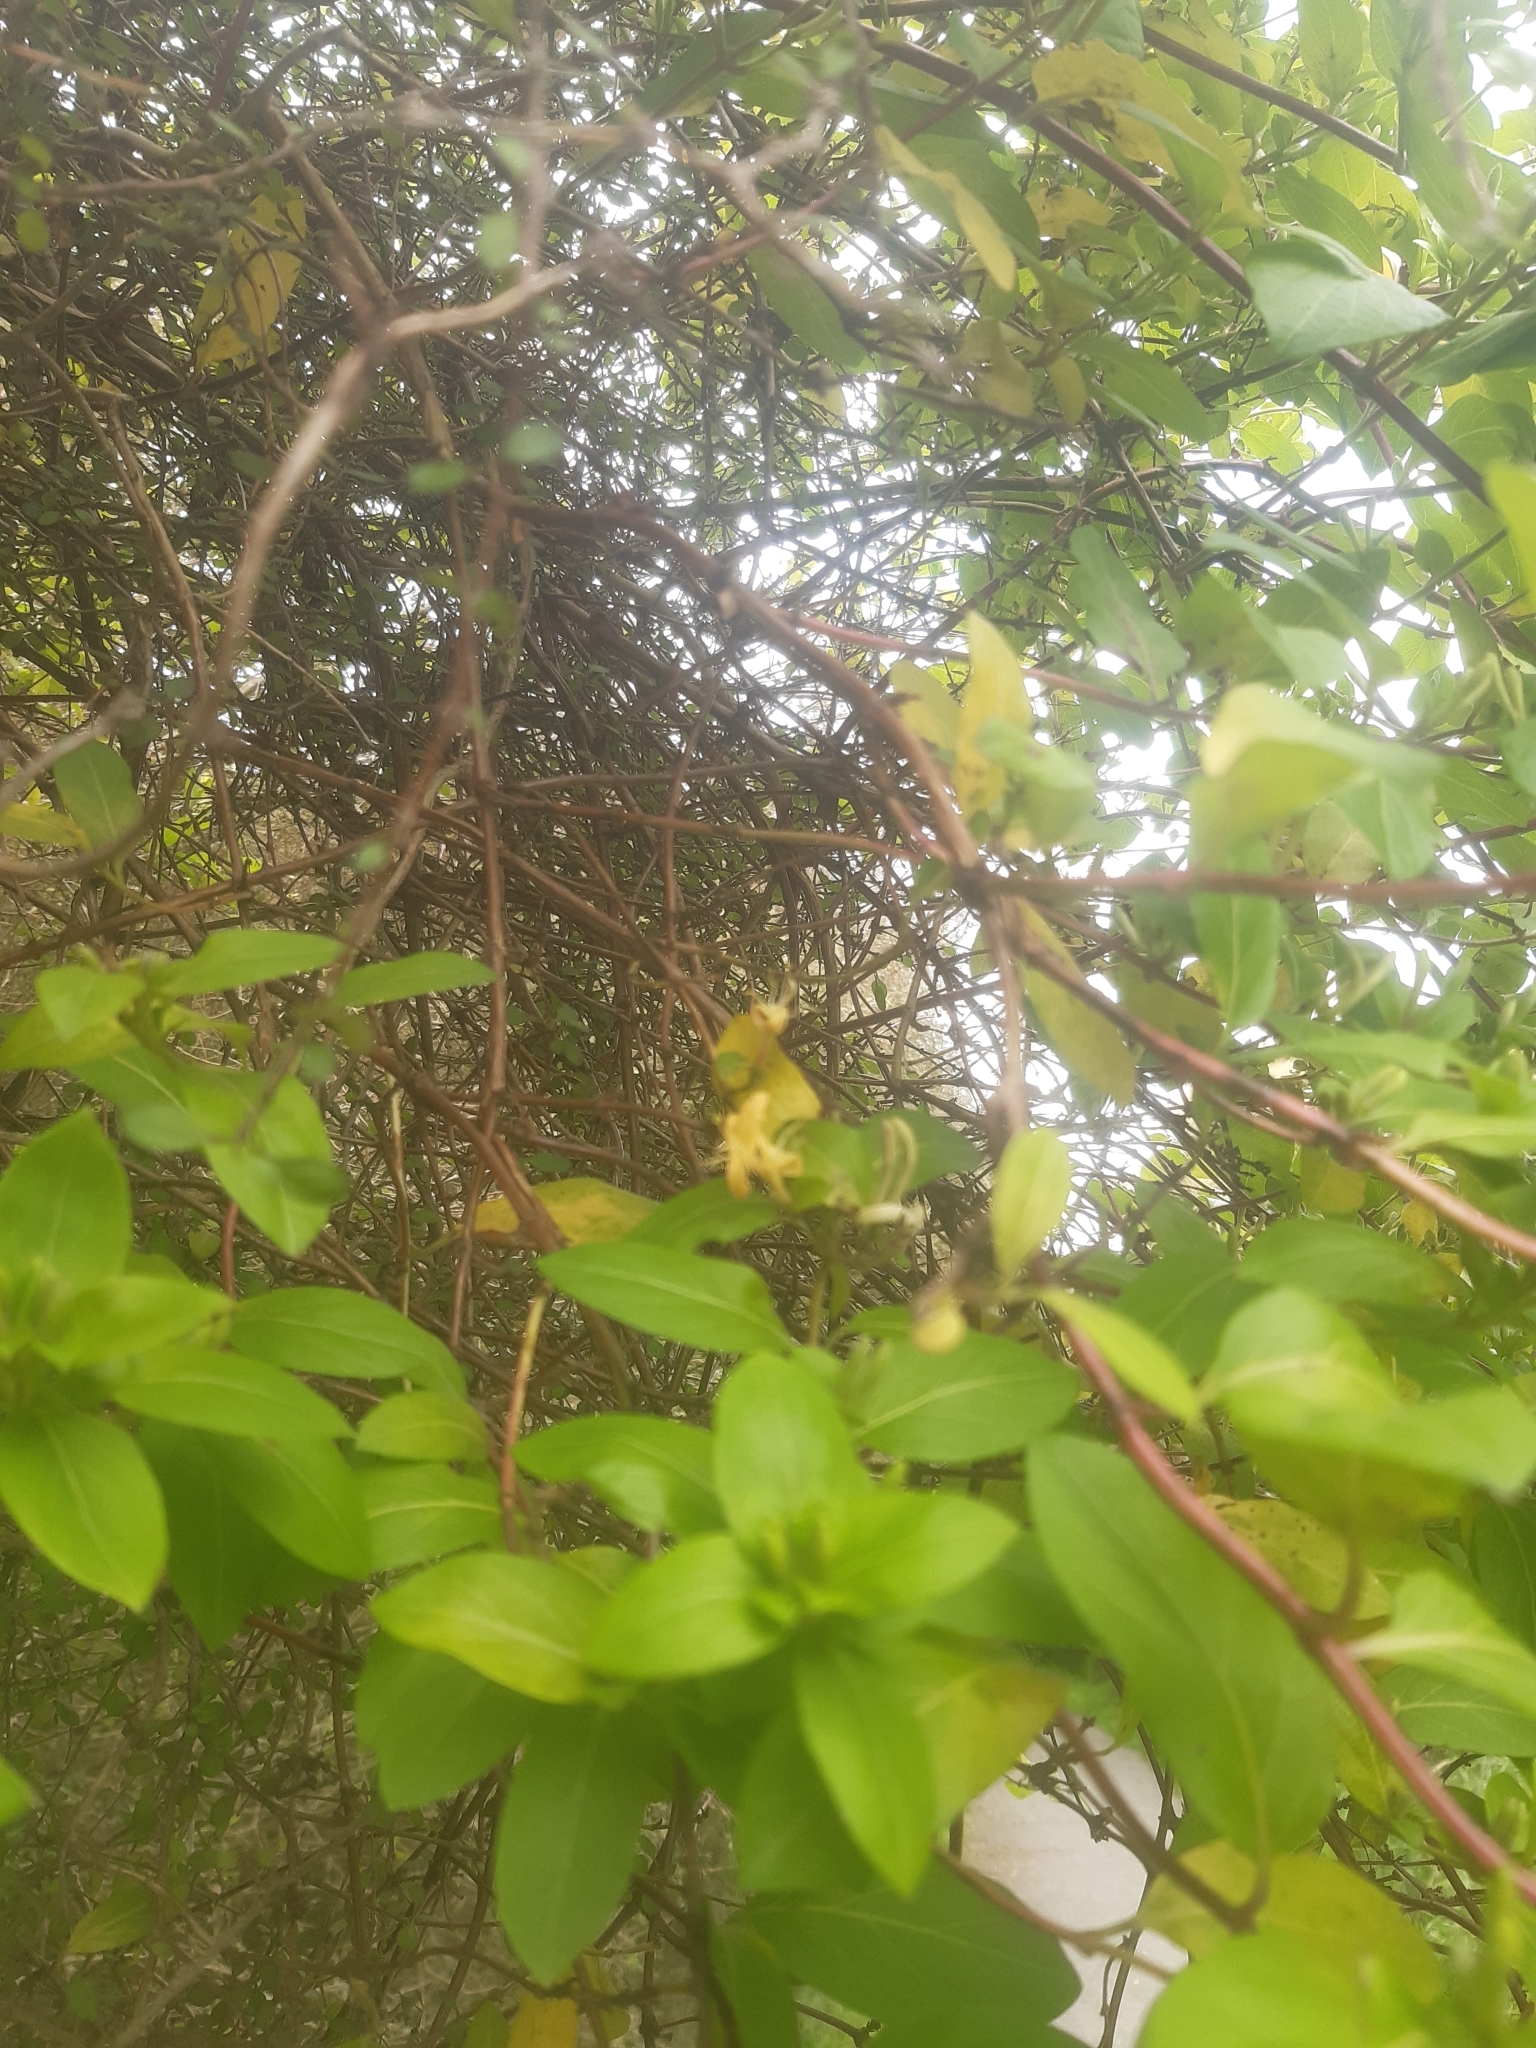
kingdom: Plantae
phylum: Tracheophyta
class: Magnoliopsida
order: Dipsacales
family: Caprifoliaceae
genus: Lonicera
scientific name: Lonicera japonica
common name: Japanese honeysuckle
